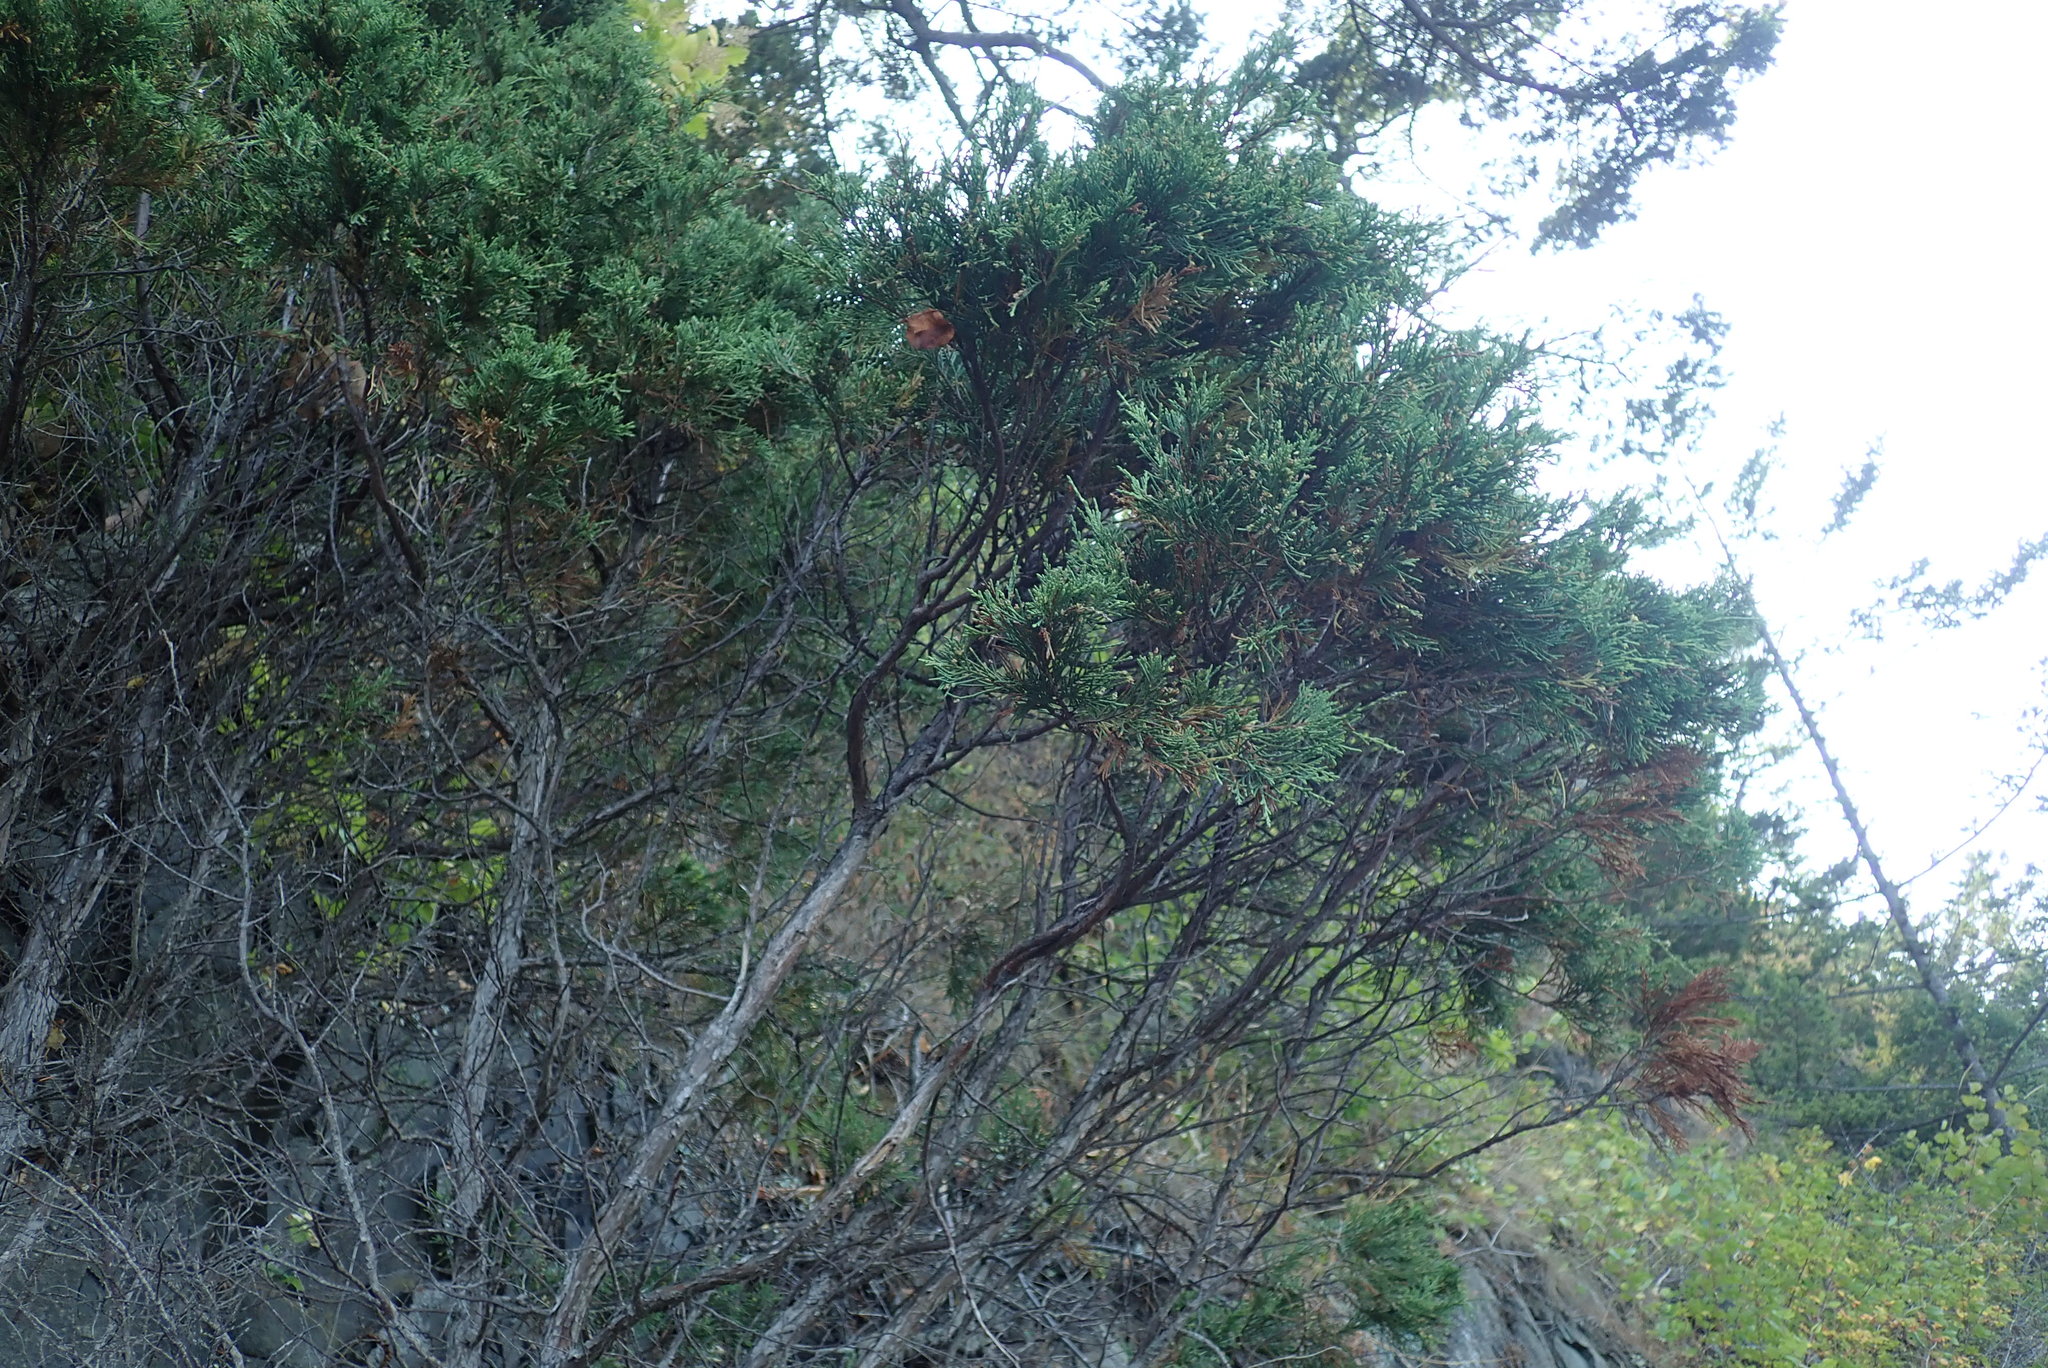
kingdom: Plantae
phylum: Tracheophyta
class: Pinopsida
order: Pinales
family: Cupressaceae
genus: Juniperus
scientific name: Juniperus scopulorum
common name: Rocky mountain juniper
